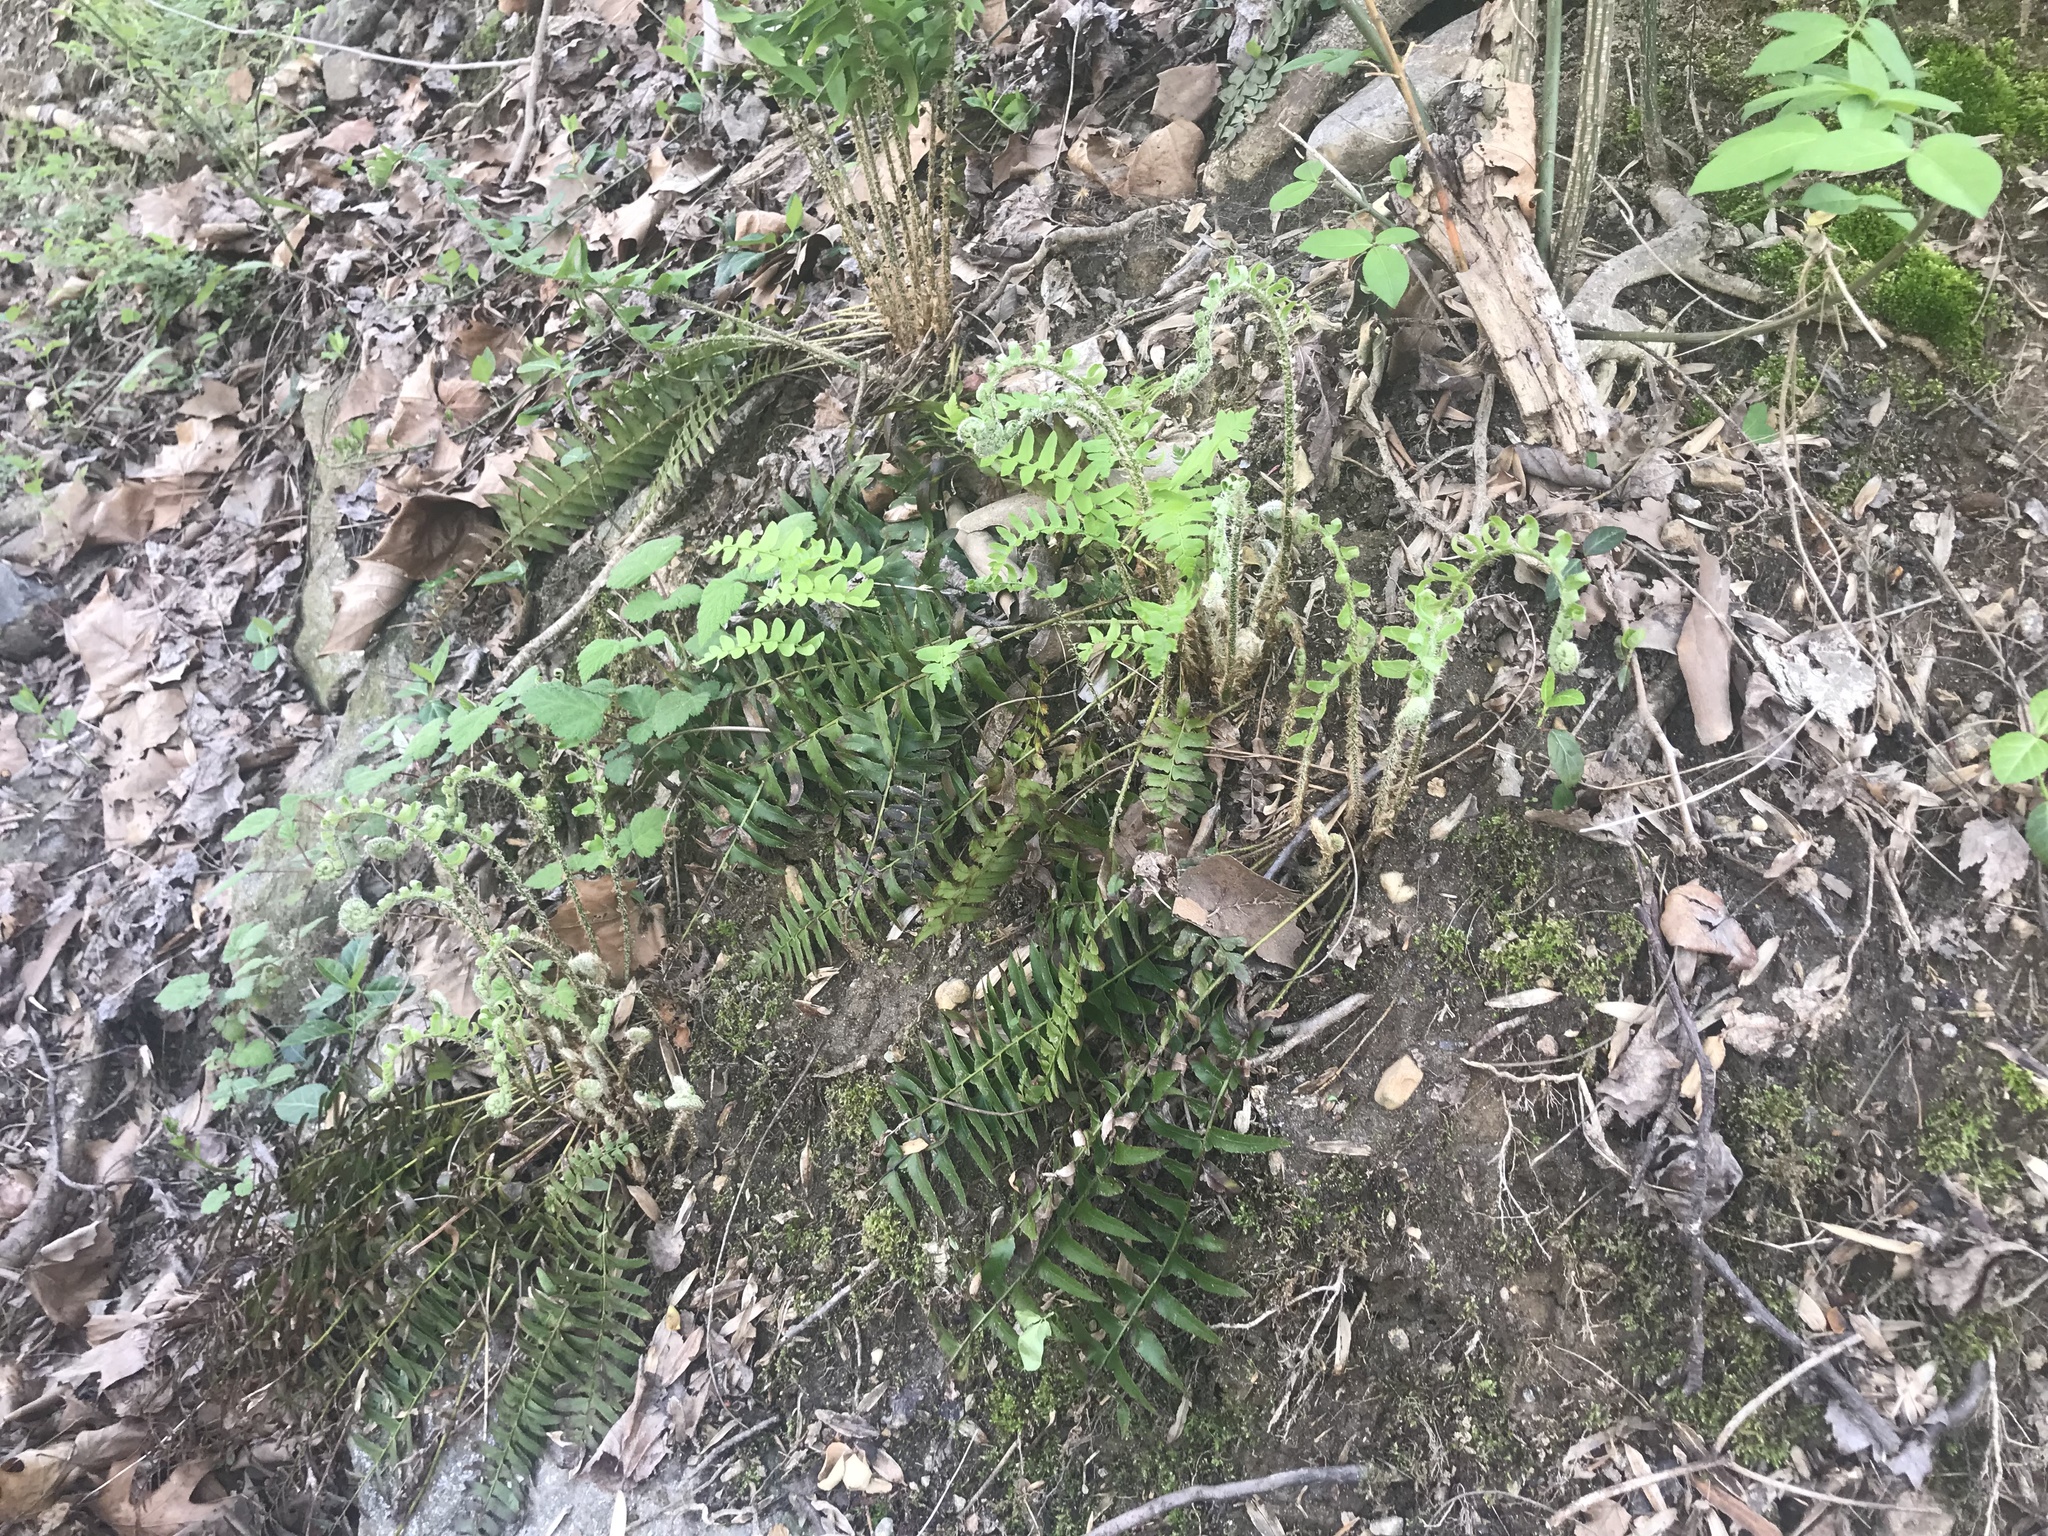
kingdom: Plantae
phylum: Tracheophyta
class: Polypodiopsida
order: Polypodiales
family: Dryopteridaceae
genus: Polystichum
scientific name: Polystichum acrostichoides
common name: Christmas fern
